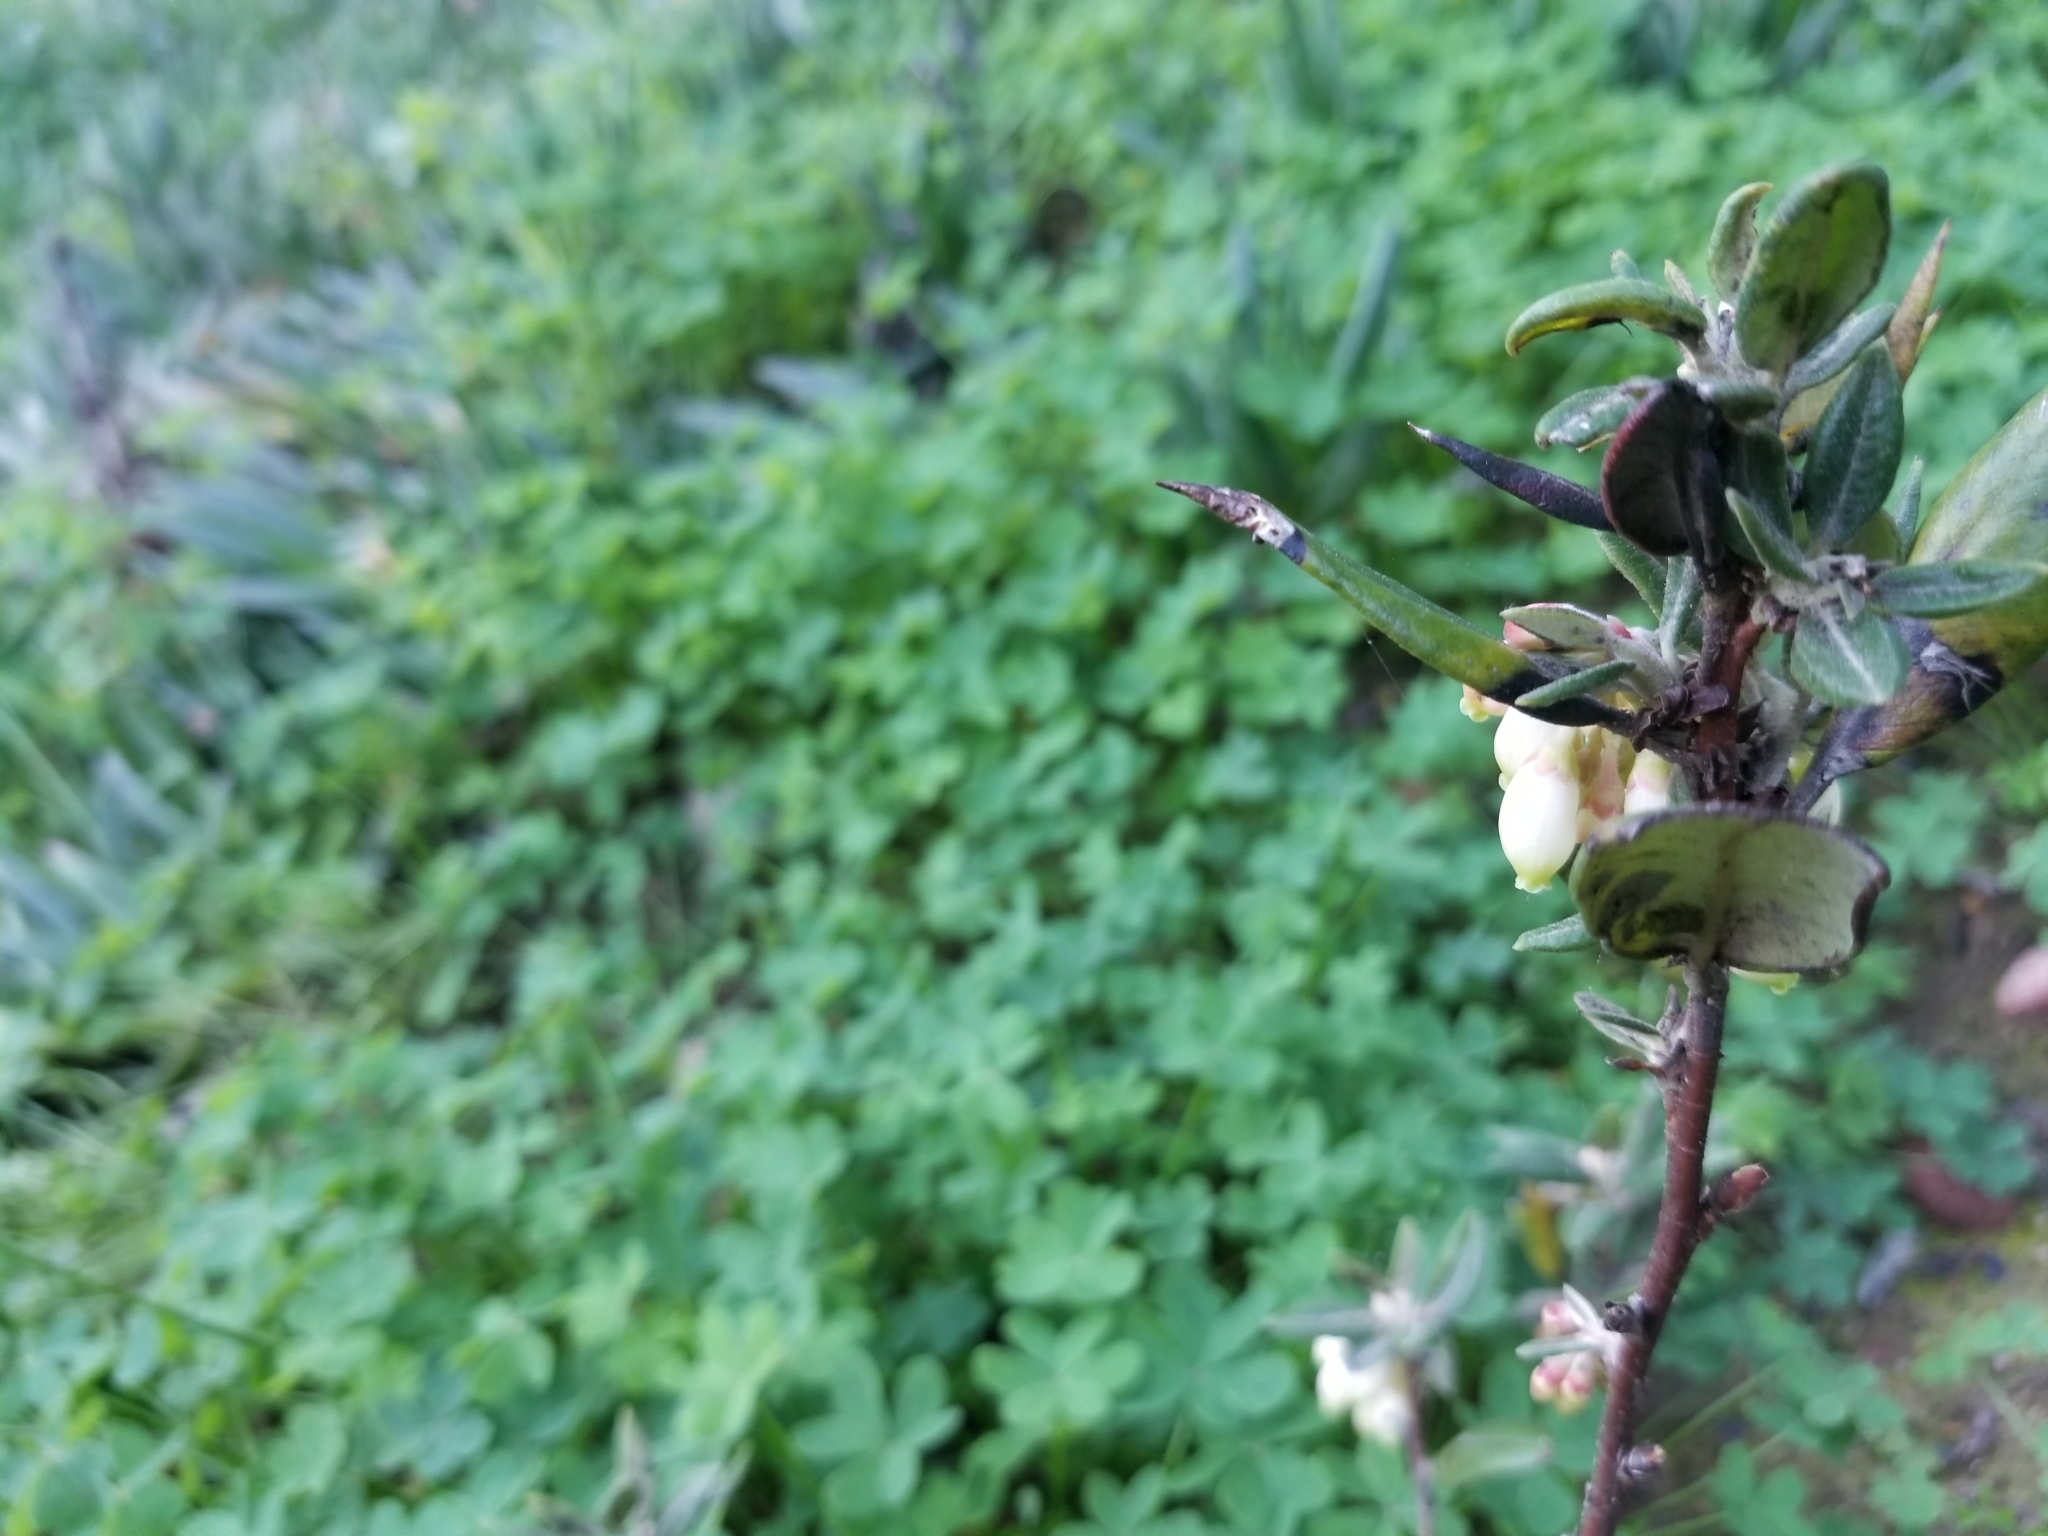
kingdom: Plantae
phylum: Tracheophyta
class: Magnoliopsida
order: Ericales
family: Ericaceae
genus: Arctostaphylos
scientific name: Arctostaphylos bicolor
